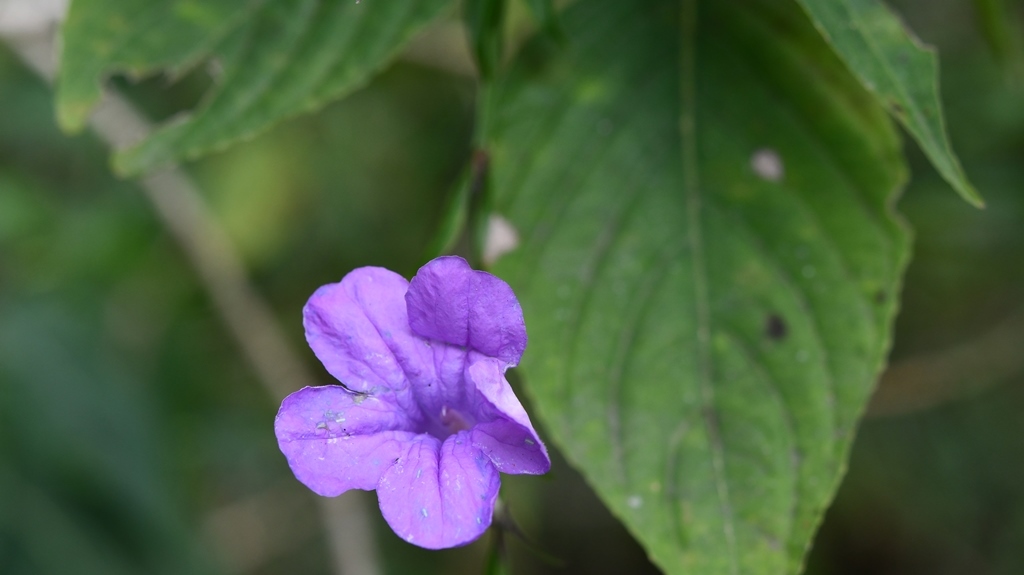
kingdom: Plantae
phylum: Tracheophyta
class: Magnoliopsida
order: Lamiales
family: Acanthaceae
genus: Ruellia
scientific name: Ruellia breedlovei
